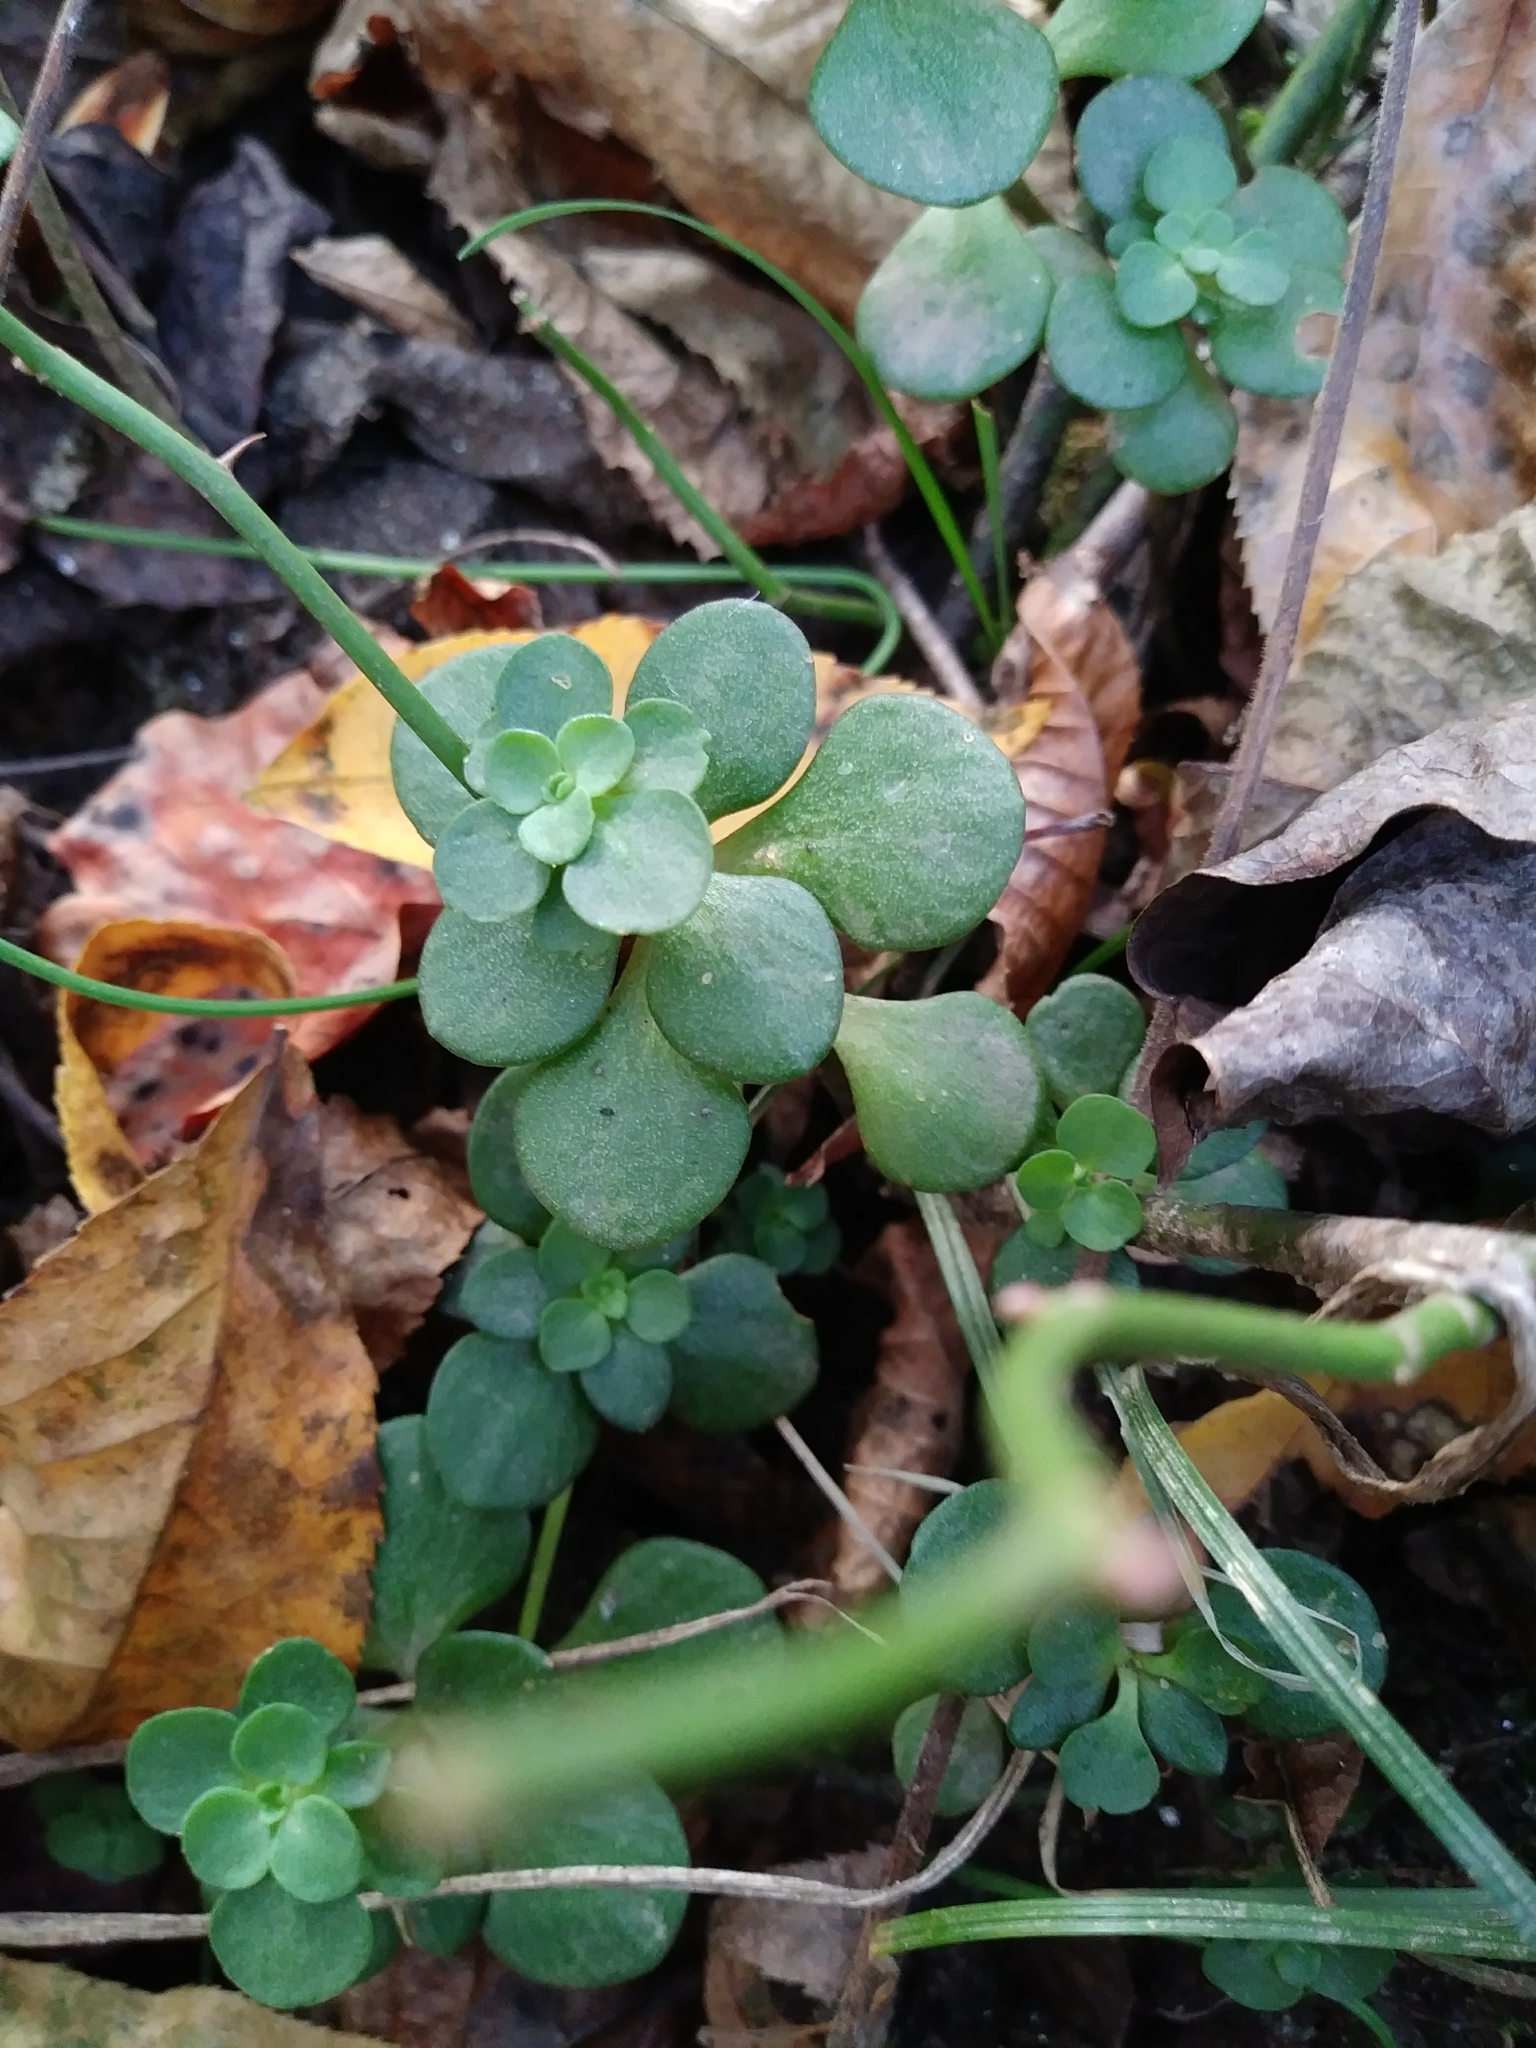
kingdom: Plantae
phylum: Tracheophyta
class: Magnoliopsida
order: Saxifragales
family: Crassulaceae
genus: Sedum
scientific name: Sedum ternatum
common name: Wild stonecrop
